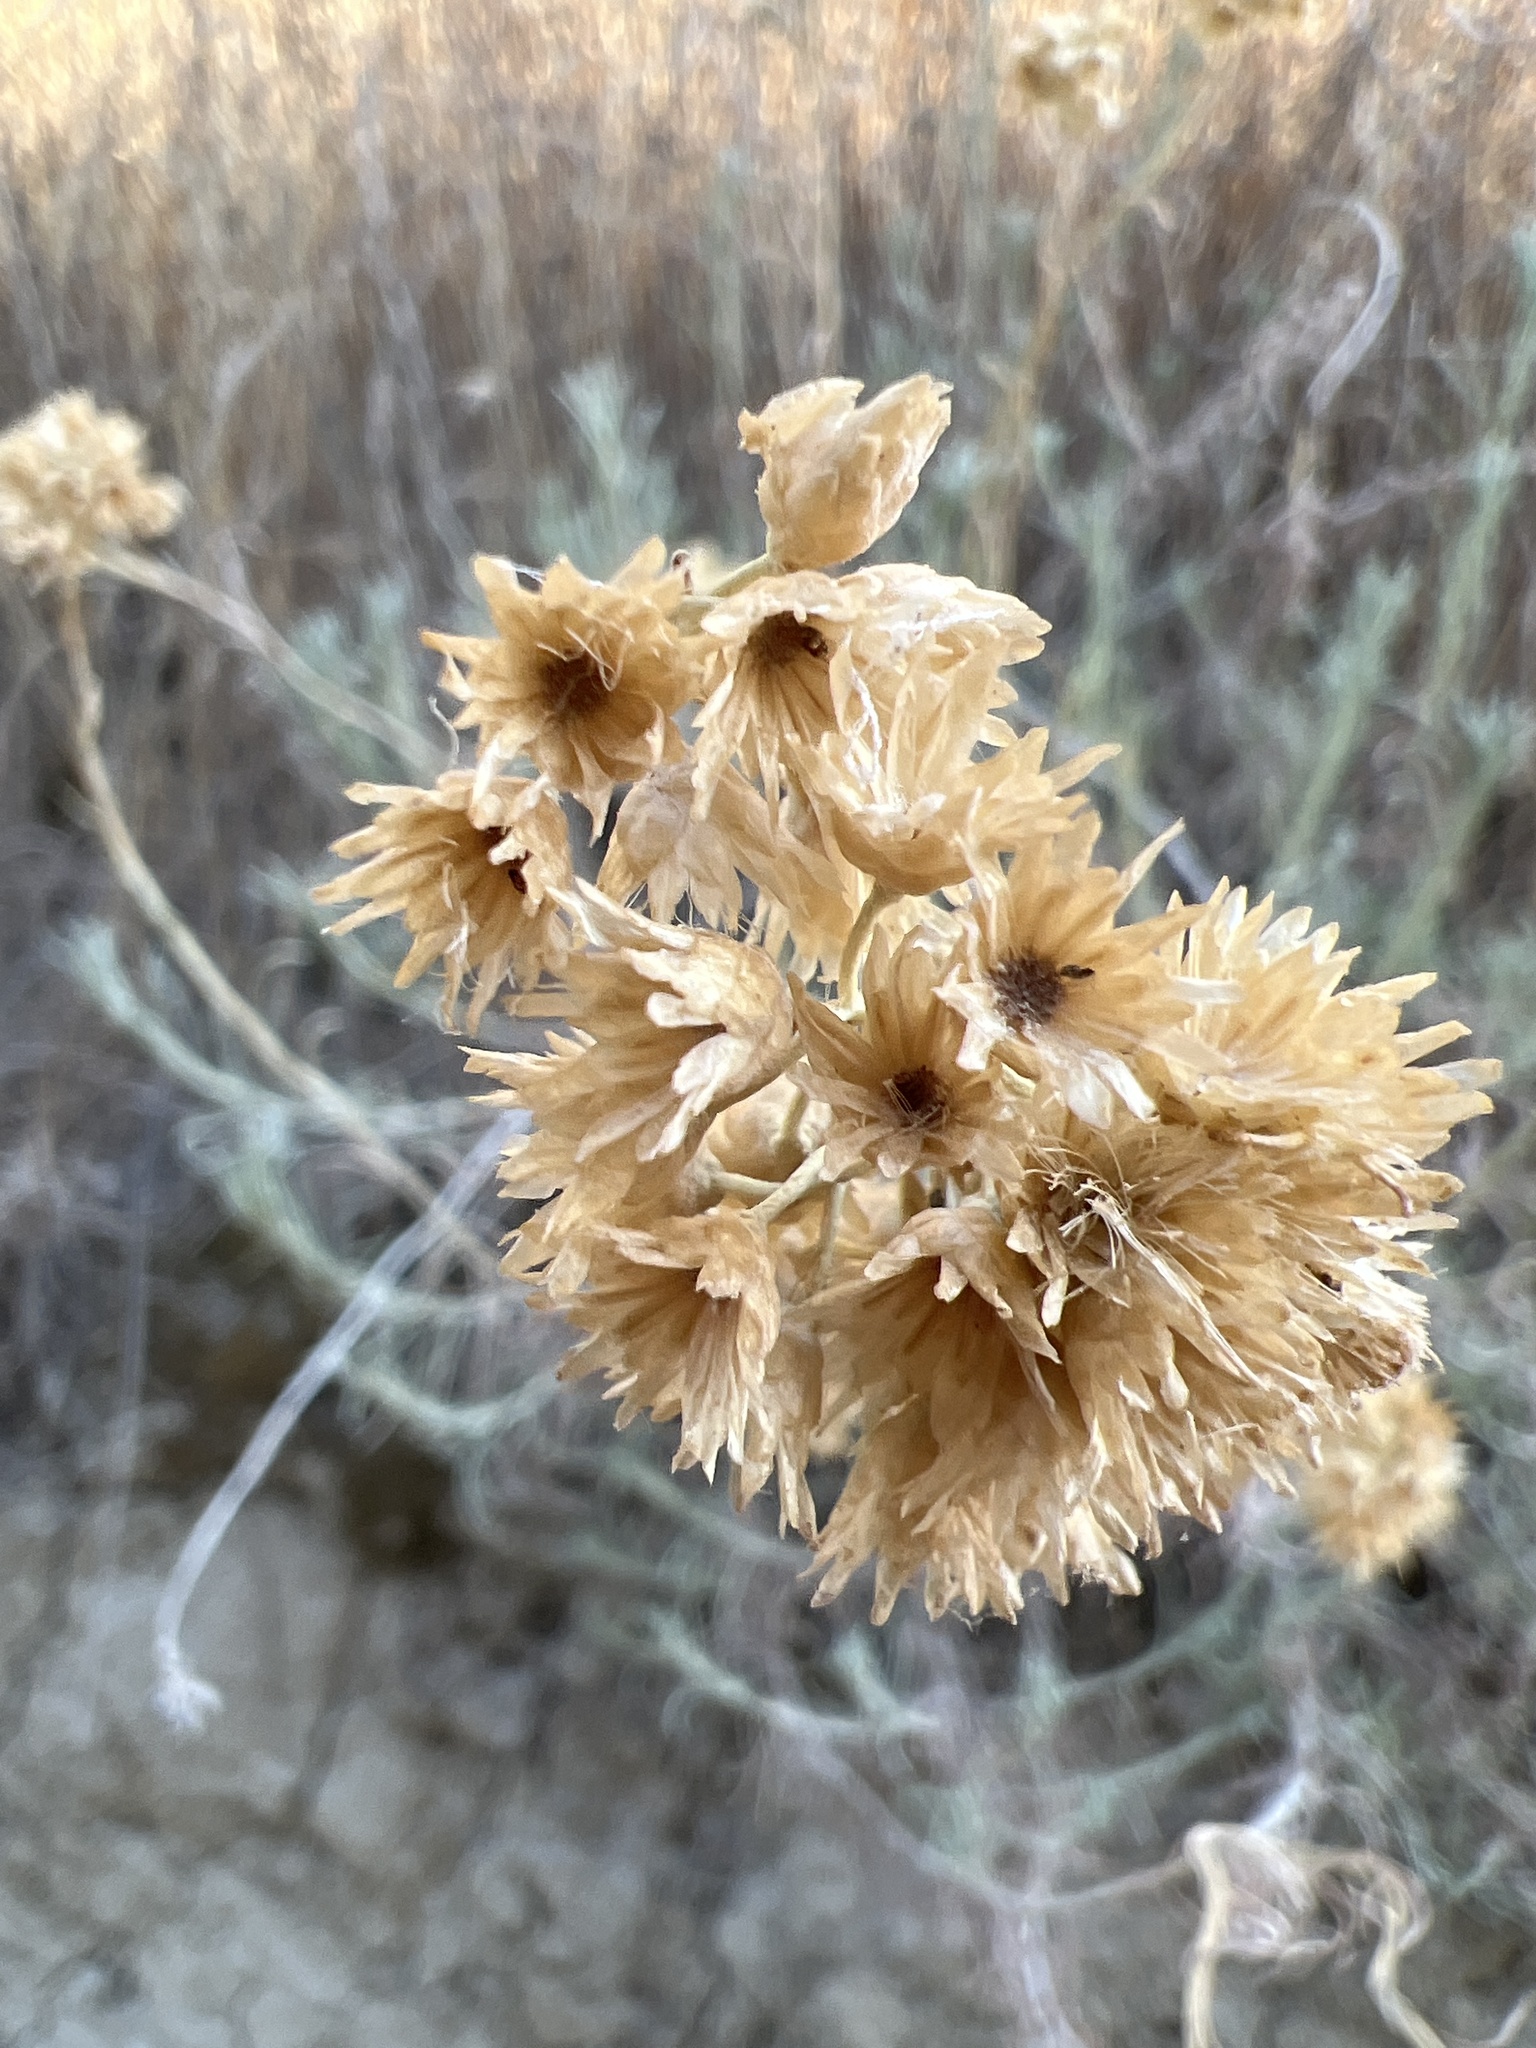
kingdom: Plantae
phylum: Tracheophyta
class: Magnoliopsida
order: Asterales
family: Asteraceae
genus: Helichrysum
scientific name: Helichrysum italicum
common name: Curryplant
